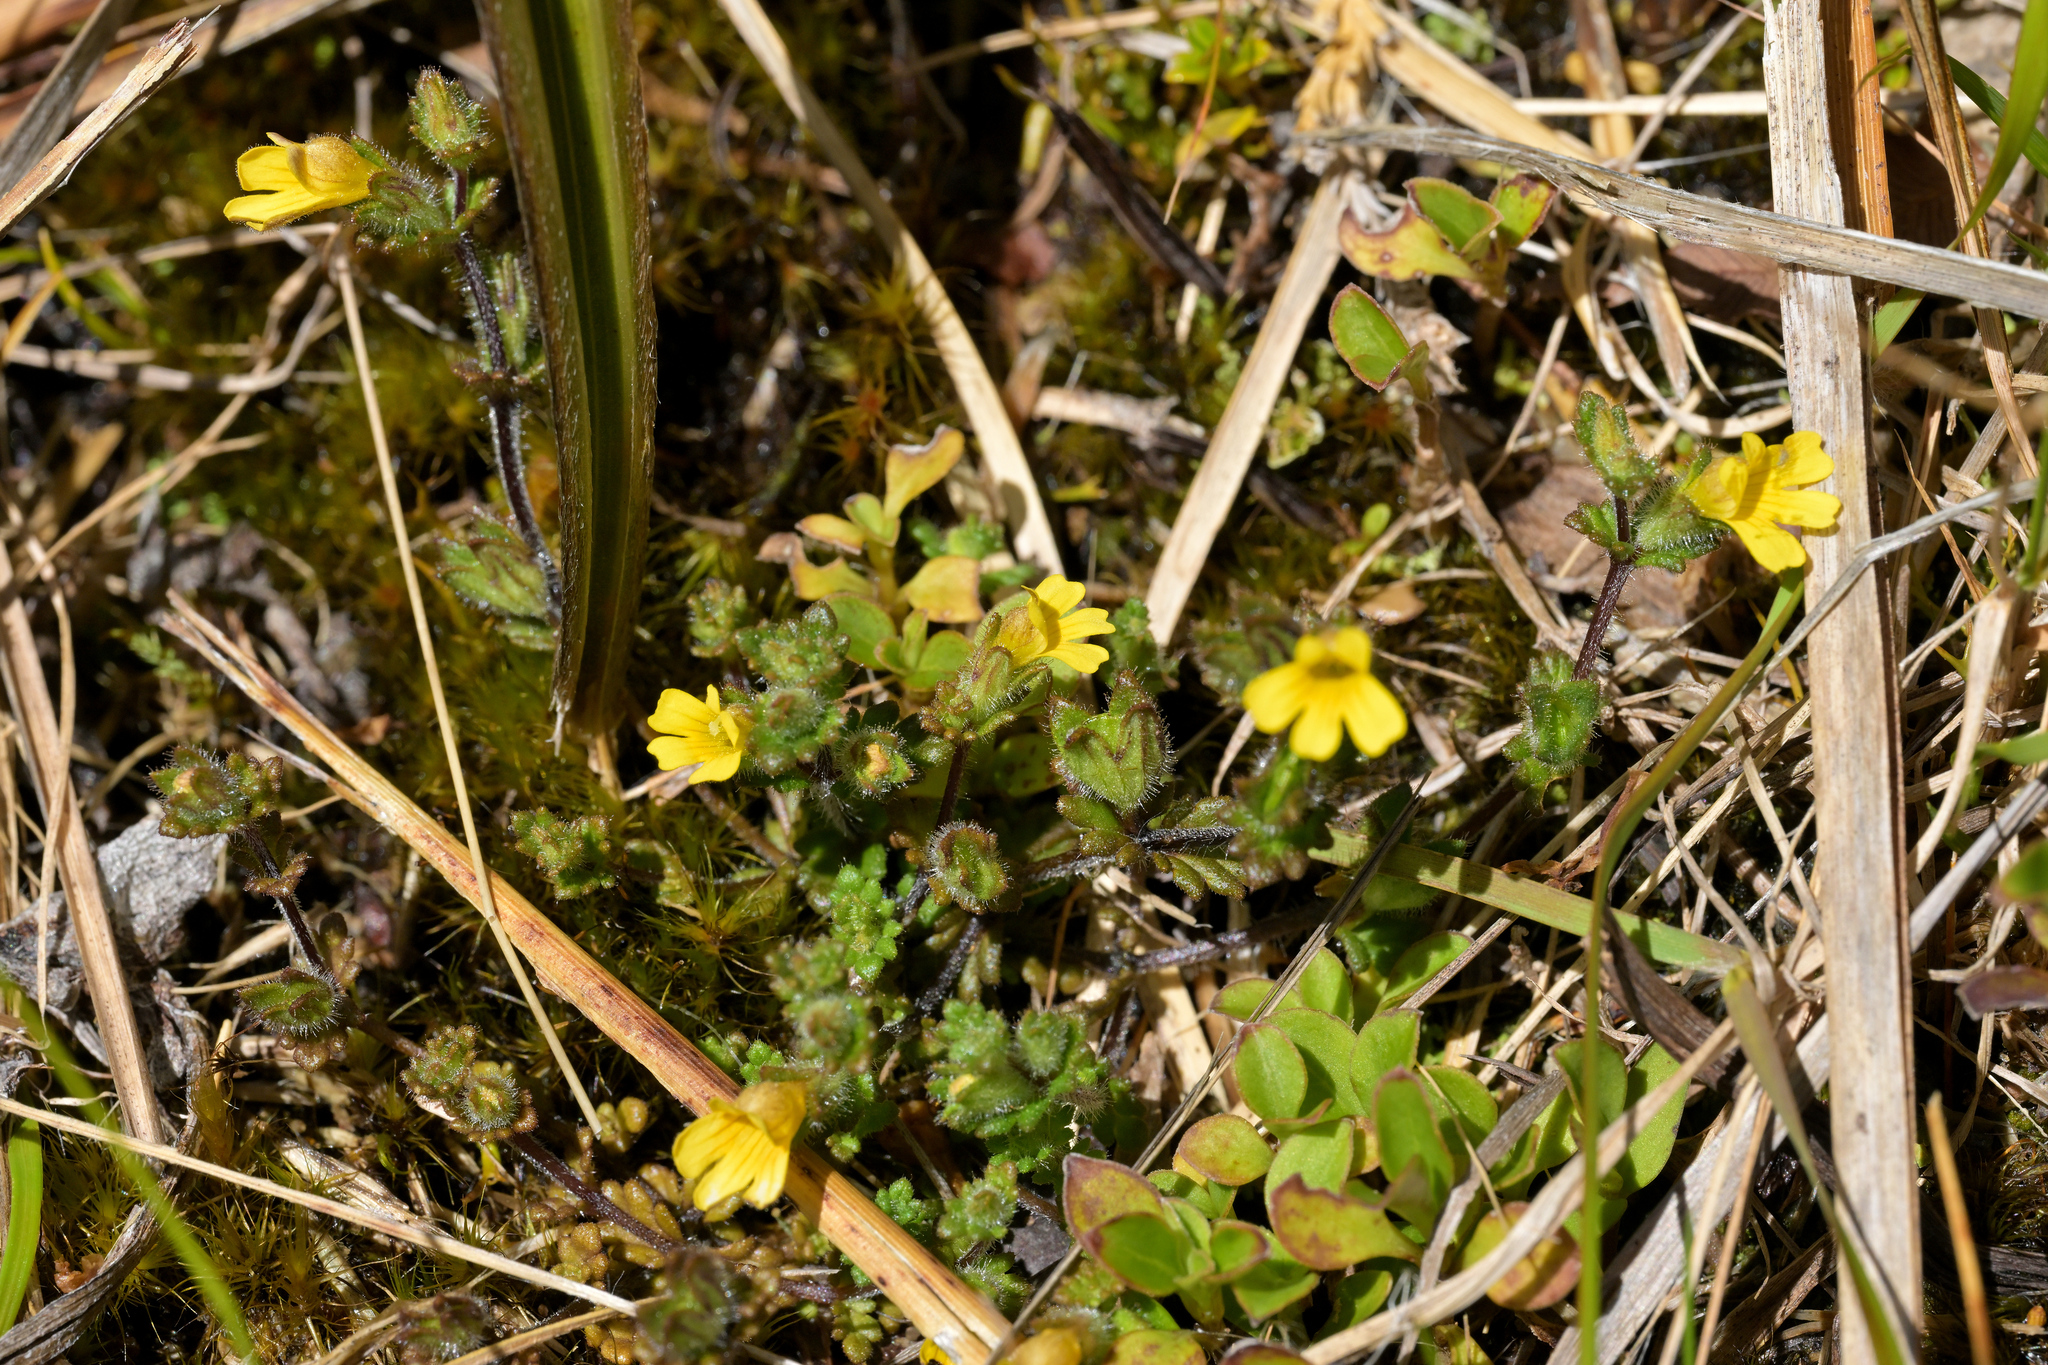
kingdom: Plantae
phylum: Tracheophyta
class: Magnoliopsida
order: Lamiales
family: Orobanchaceae
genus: Euphrasia
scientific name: Euphrasia cockayneana
